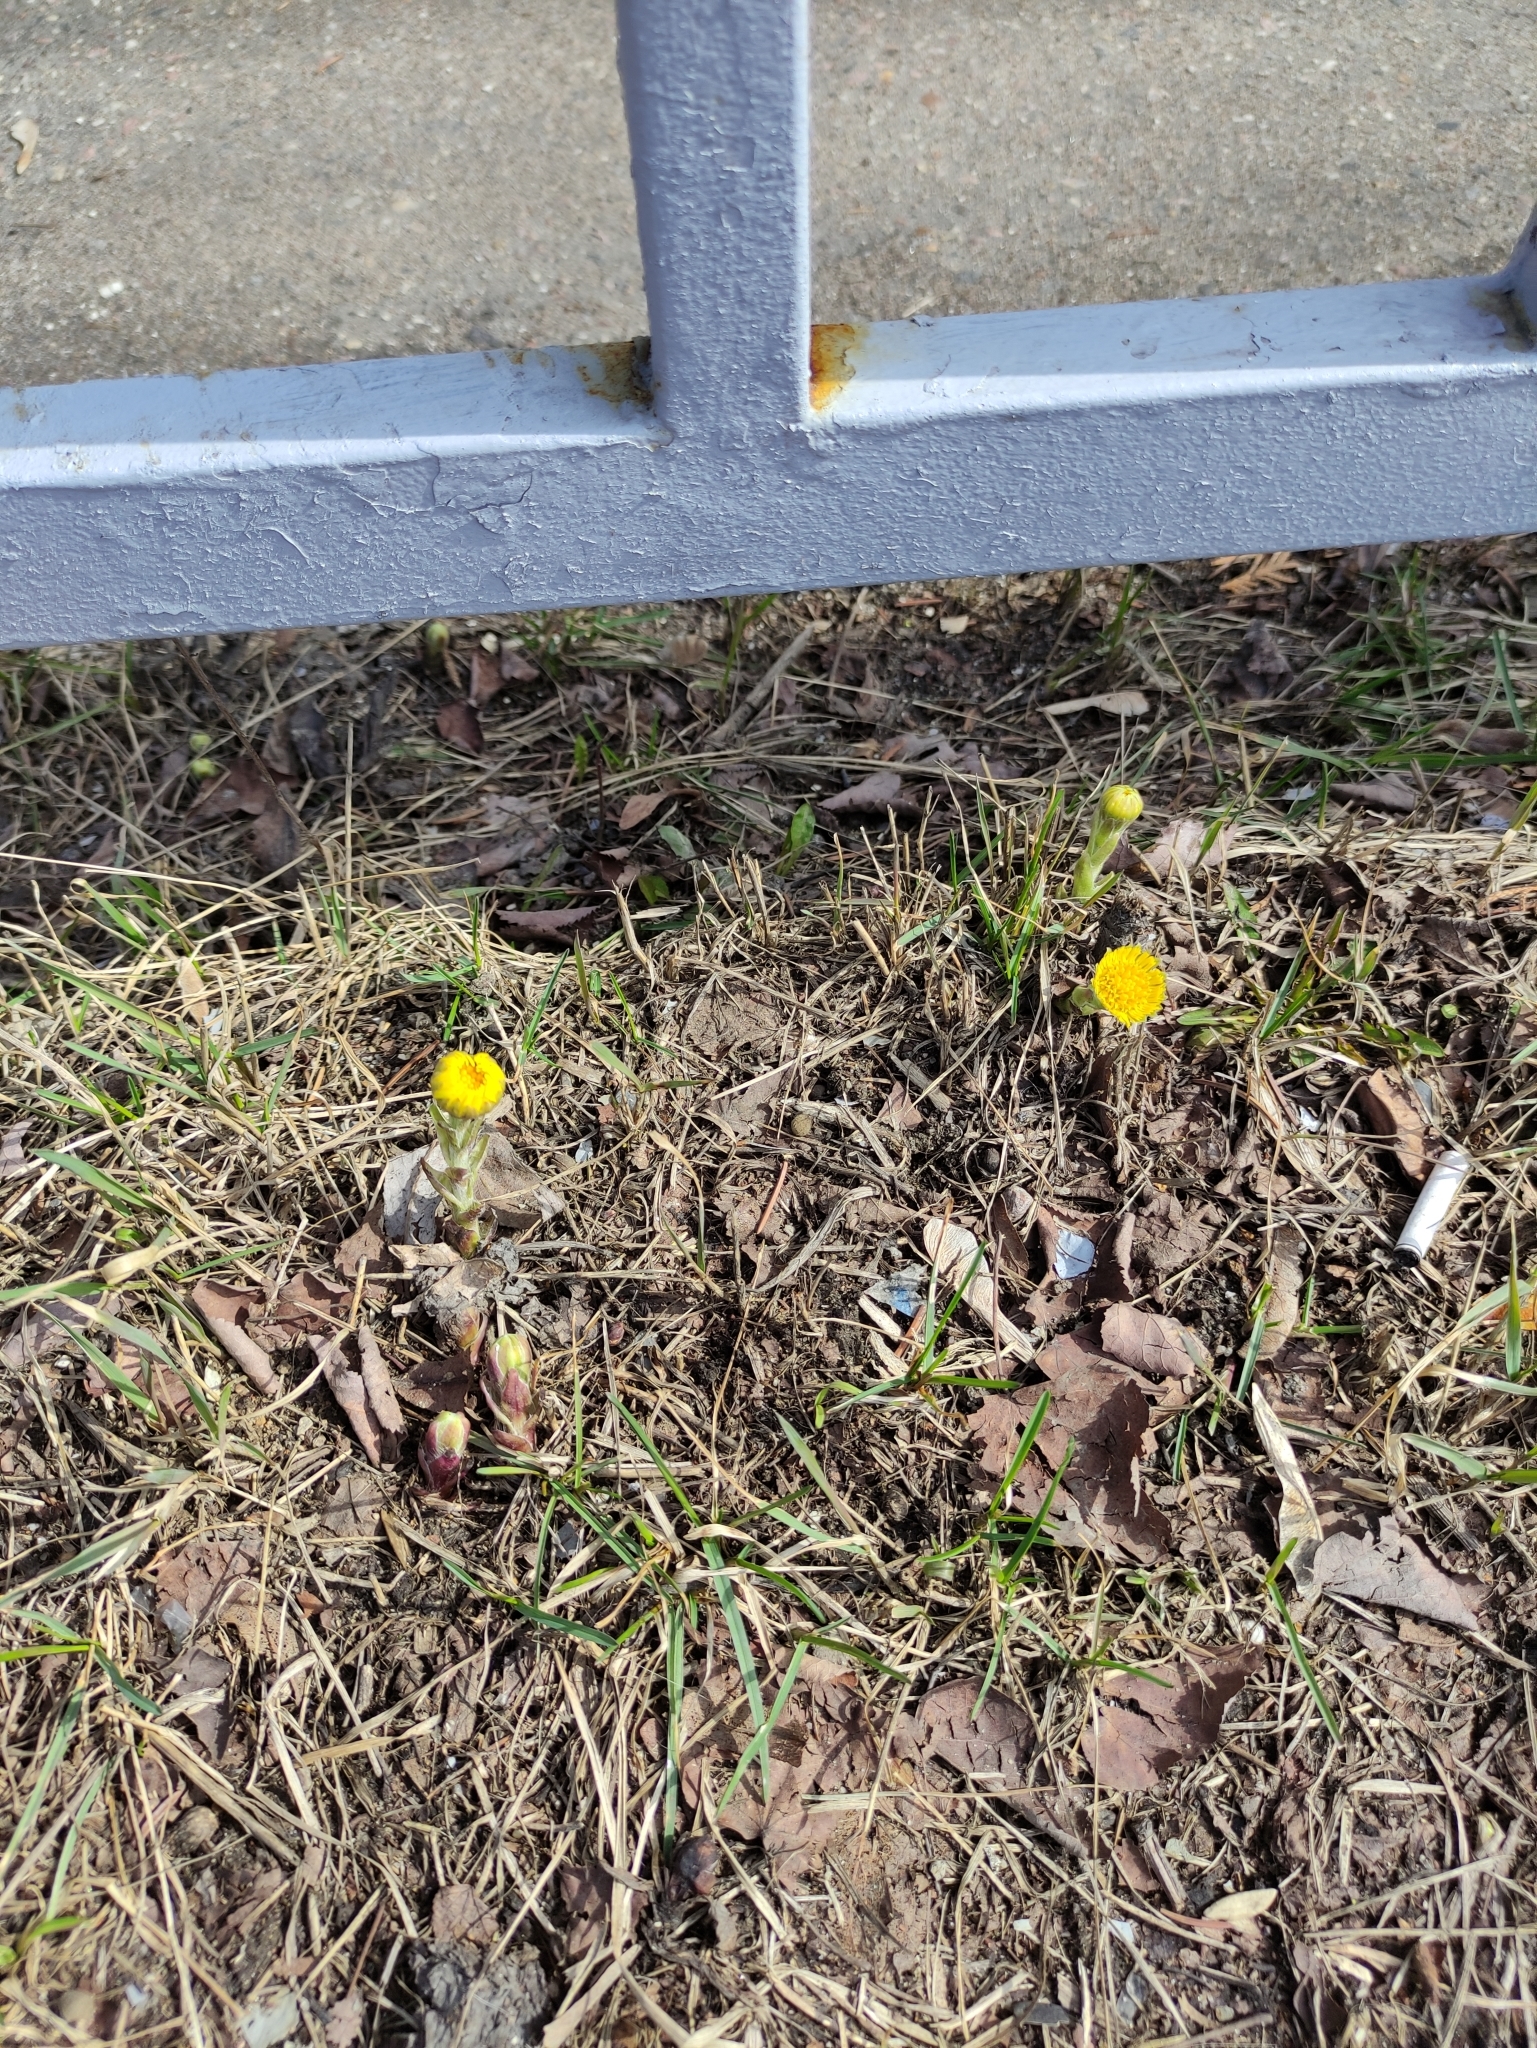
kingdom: Plantae
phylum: Tracheophyta
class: Magnoliopsida
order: Asterales
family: Asteraceae
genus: Tussilago
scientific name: Tussilago farfara
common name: Coltsfoot
